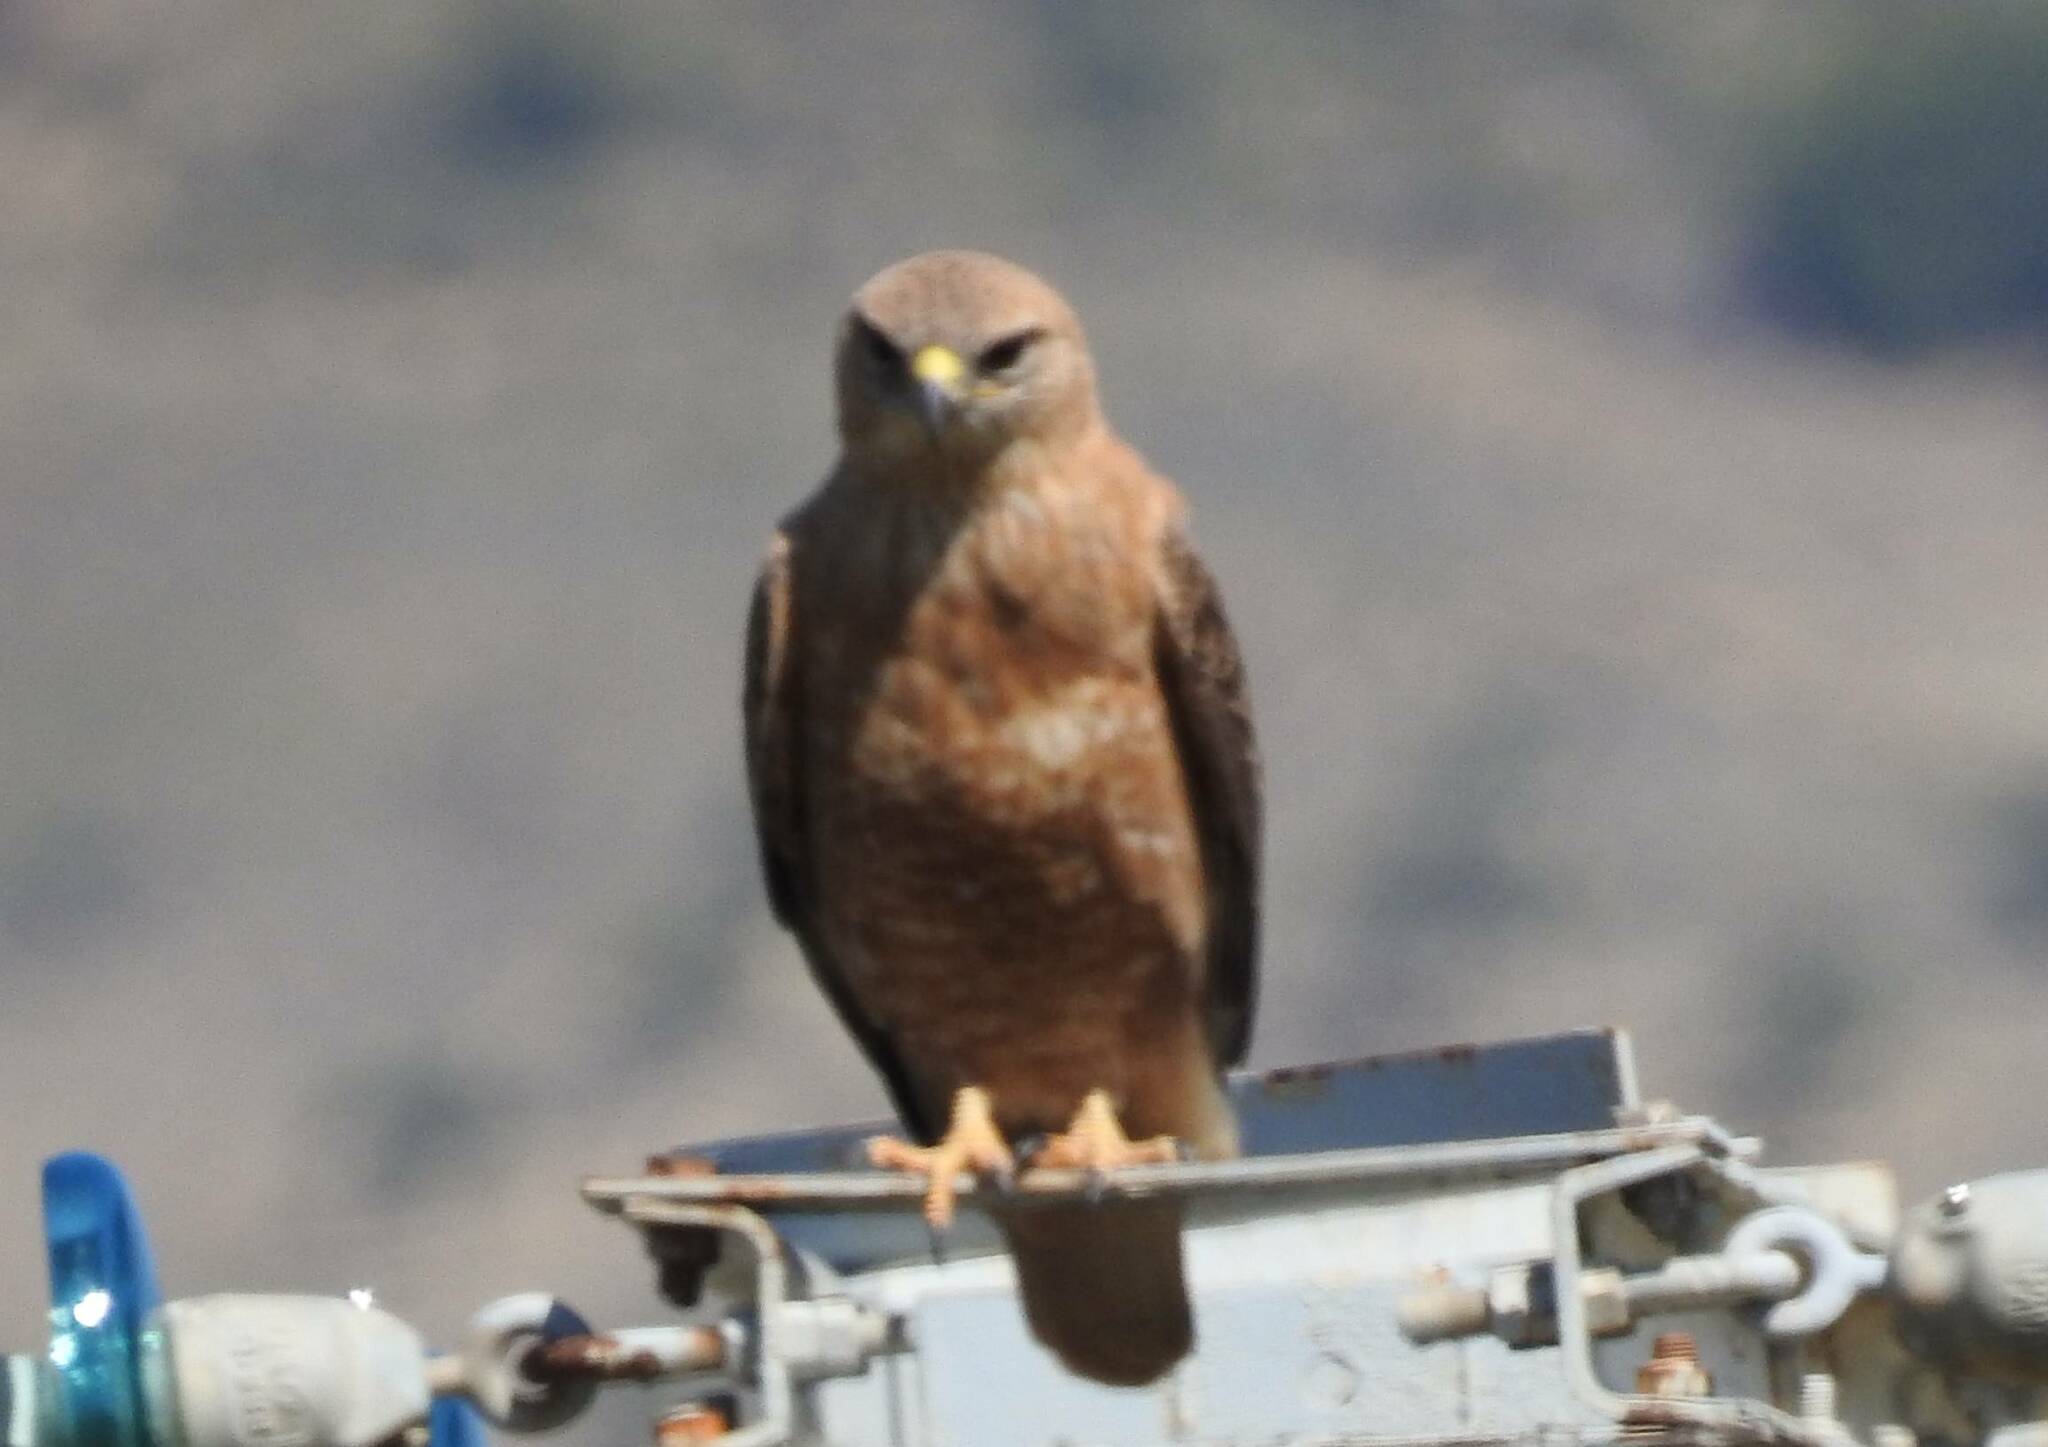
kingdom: Animalia
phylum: Chordata
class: Aves
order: Accipitriformes
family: Accipitridae
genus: Buteo
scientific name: Buteo rufinus
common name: Long-legged buzzard
